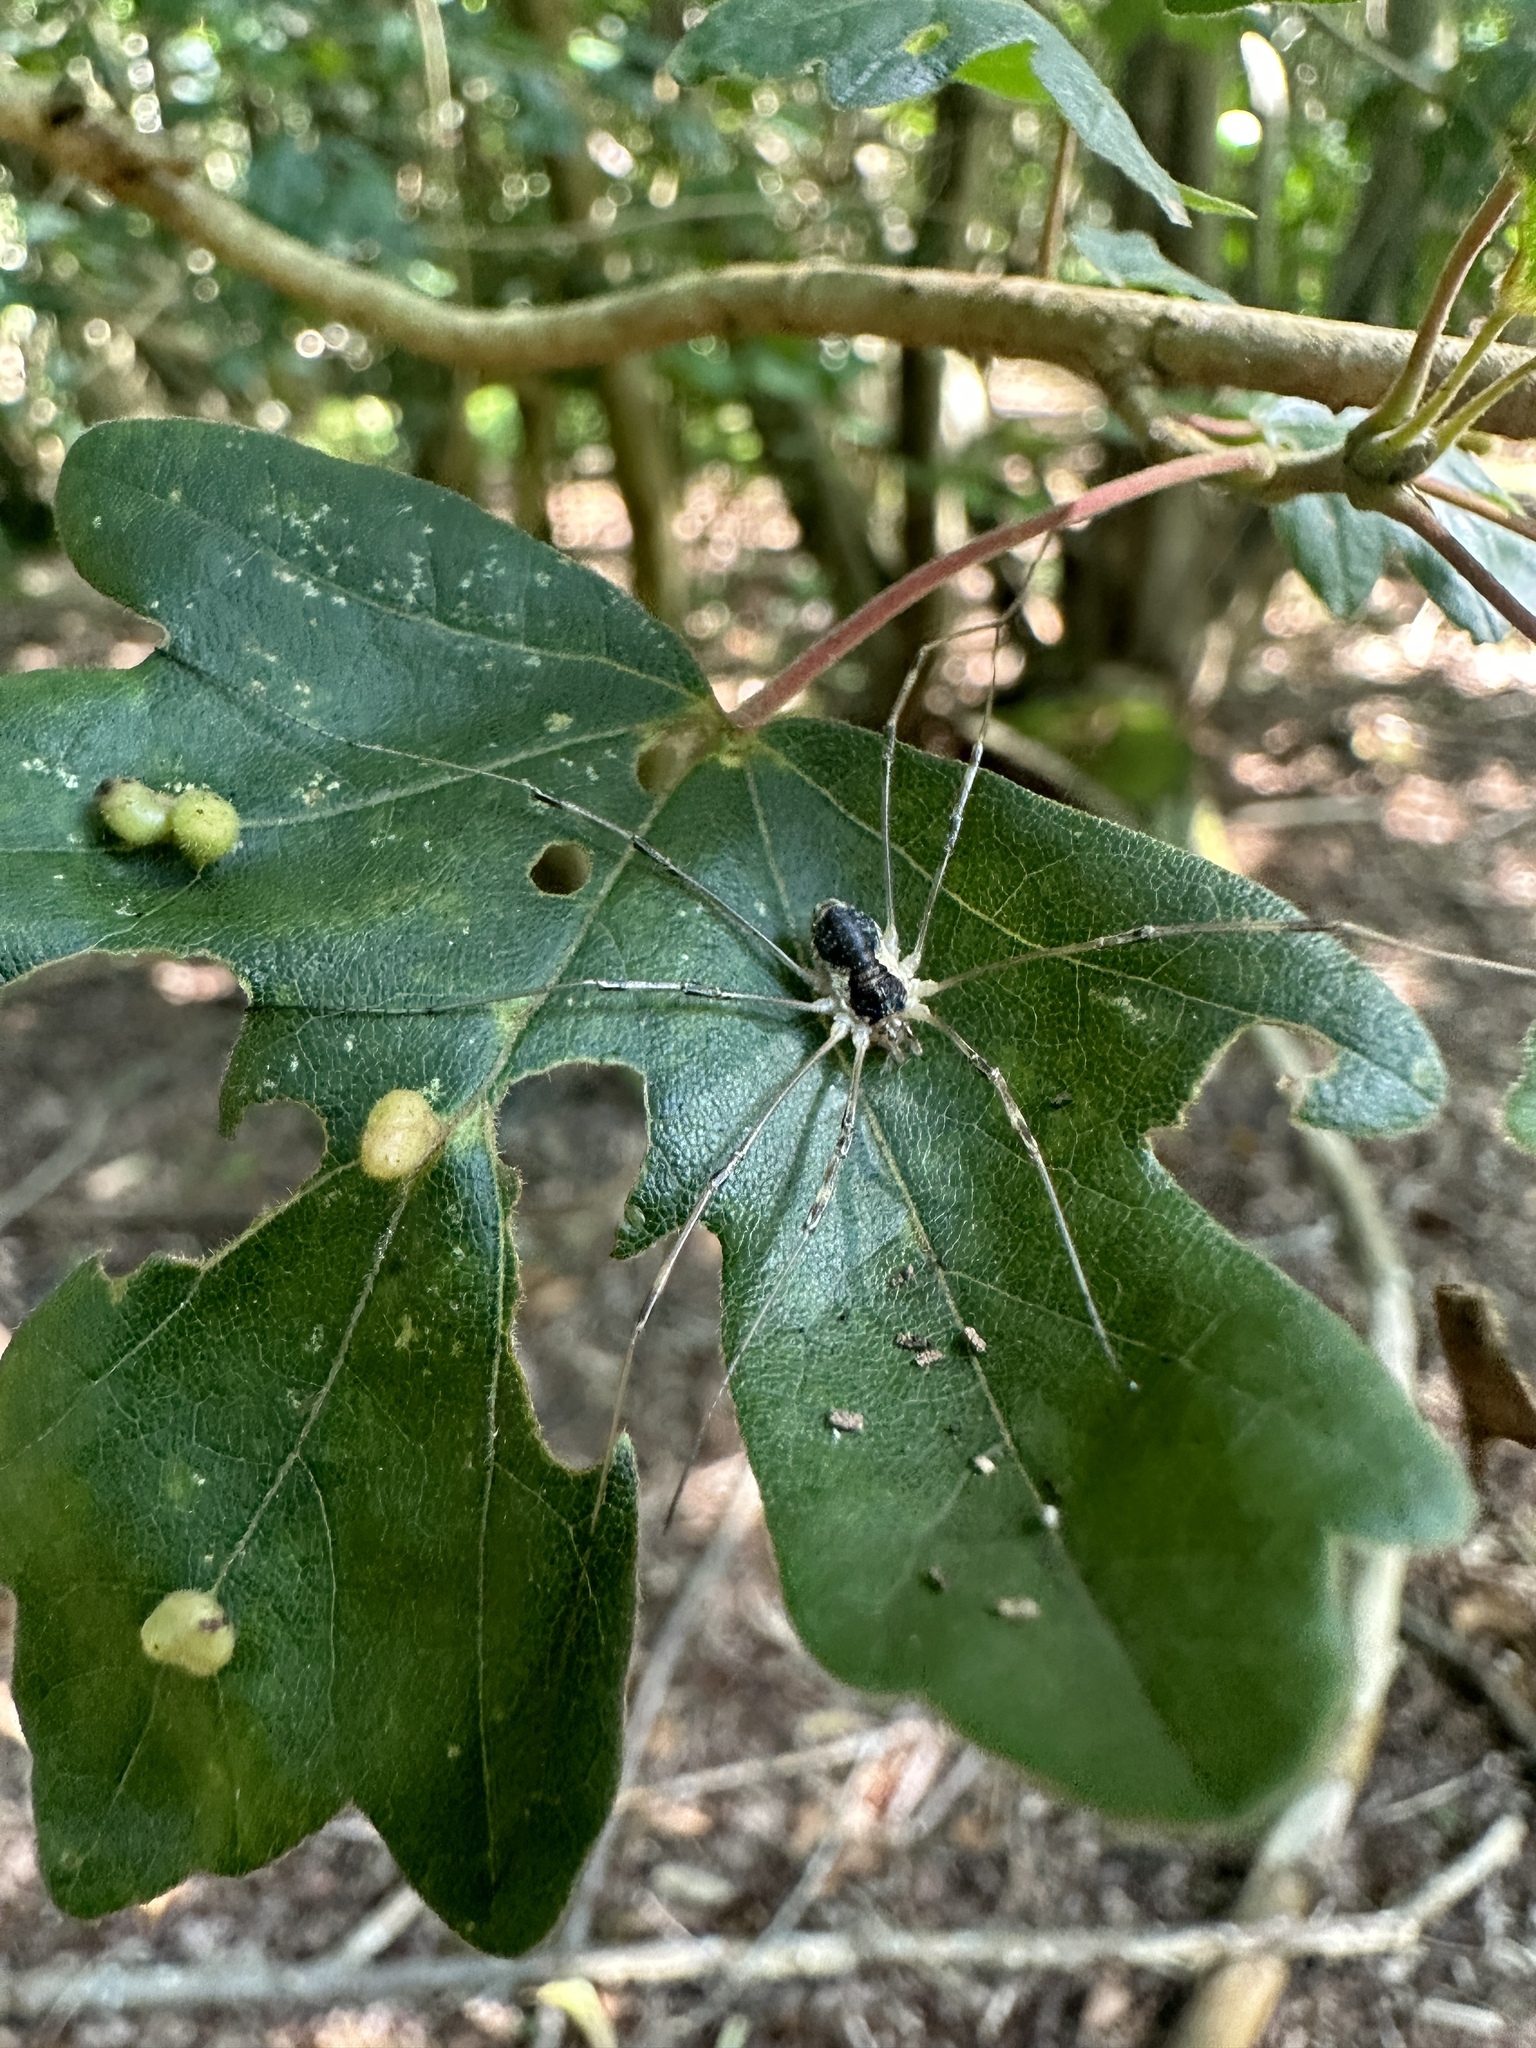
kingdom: Animalia
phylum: Arthropoda
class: Arachnida
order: Opiliones
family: Phalangiidae
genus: Mitopus
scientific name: Mitopus morio
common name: Saddleback harvestman
